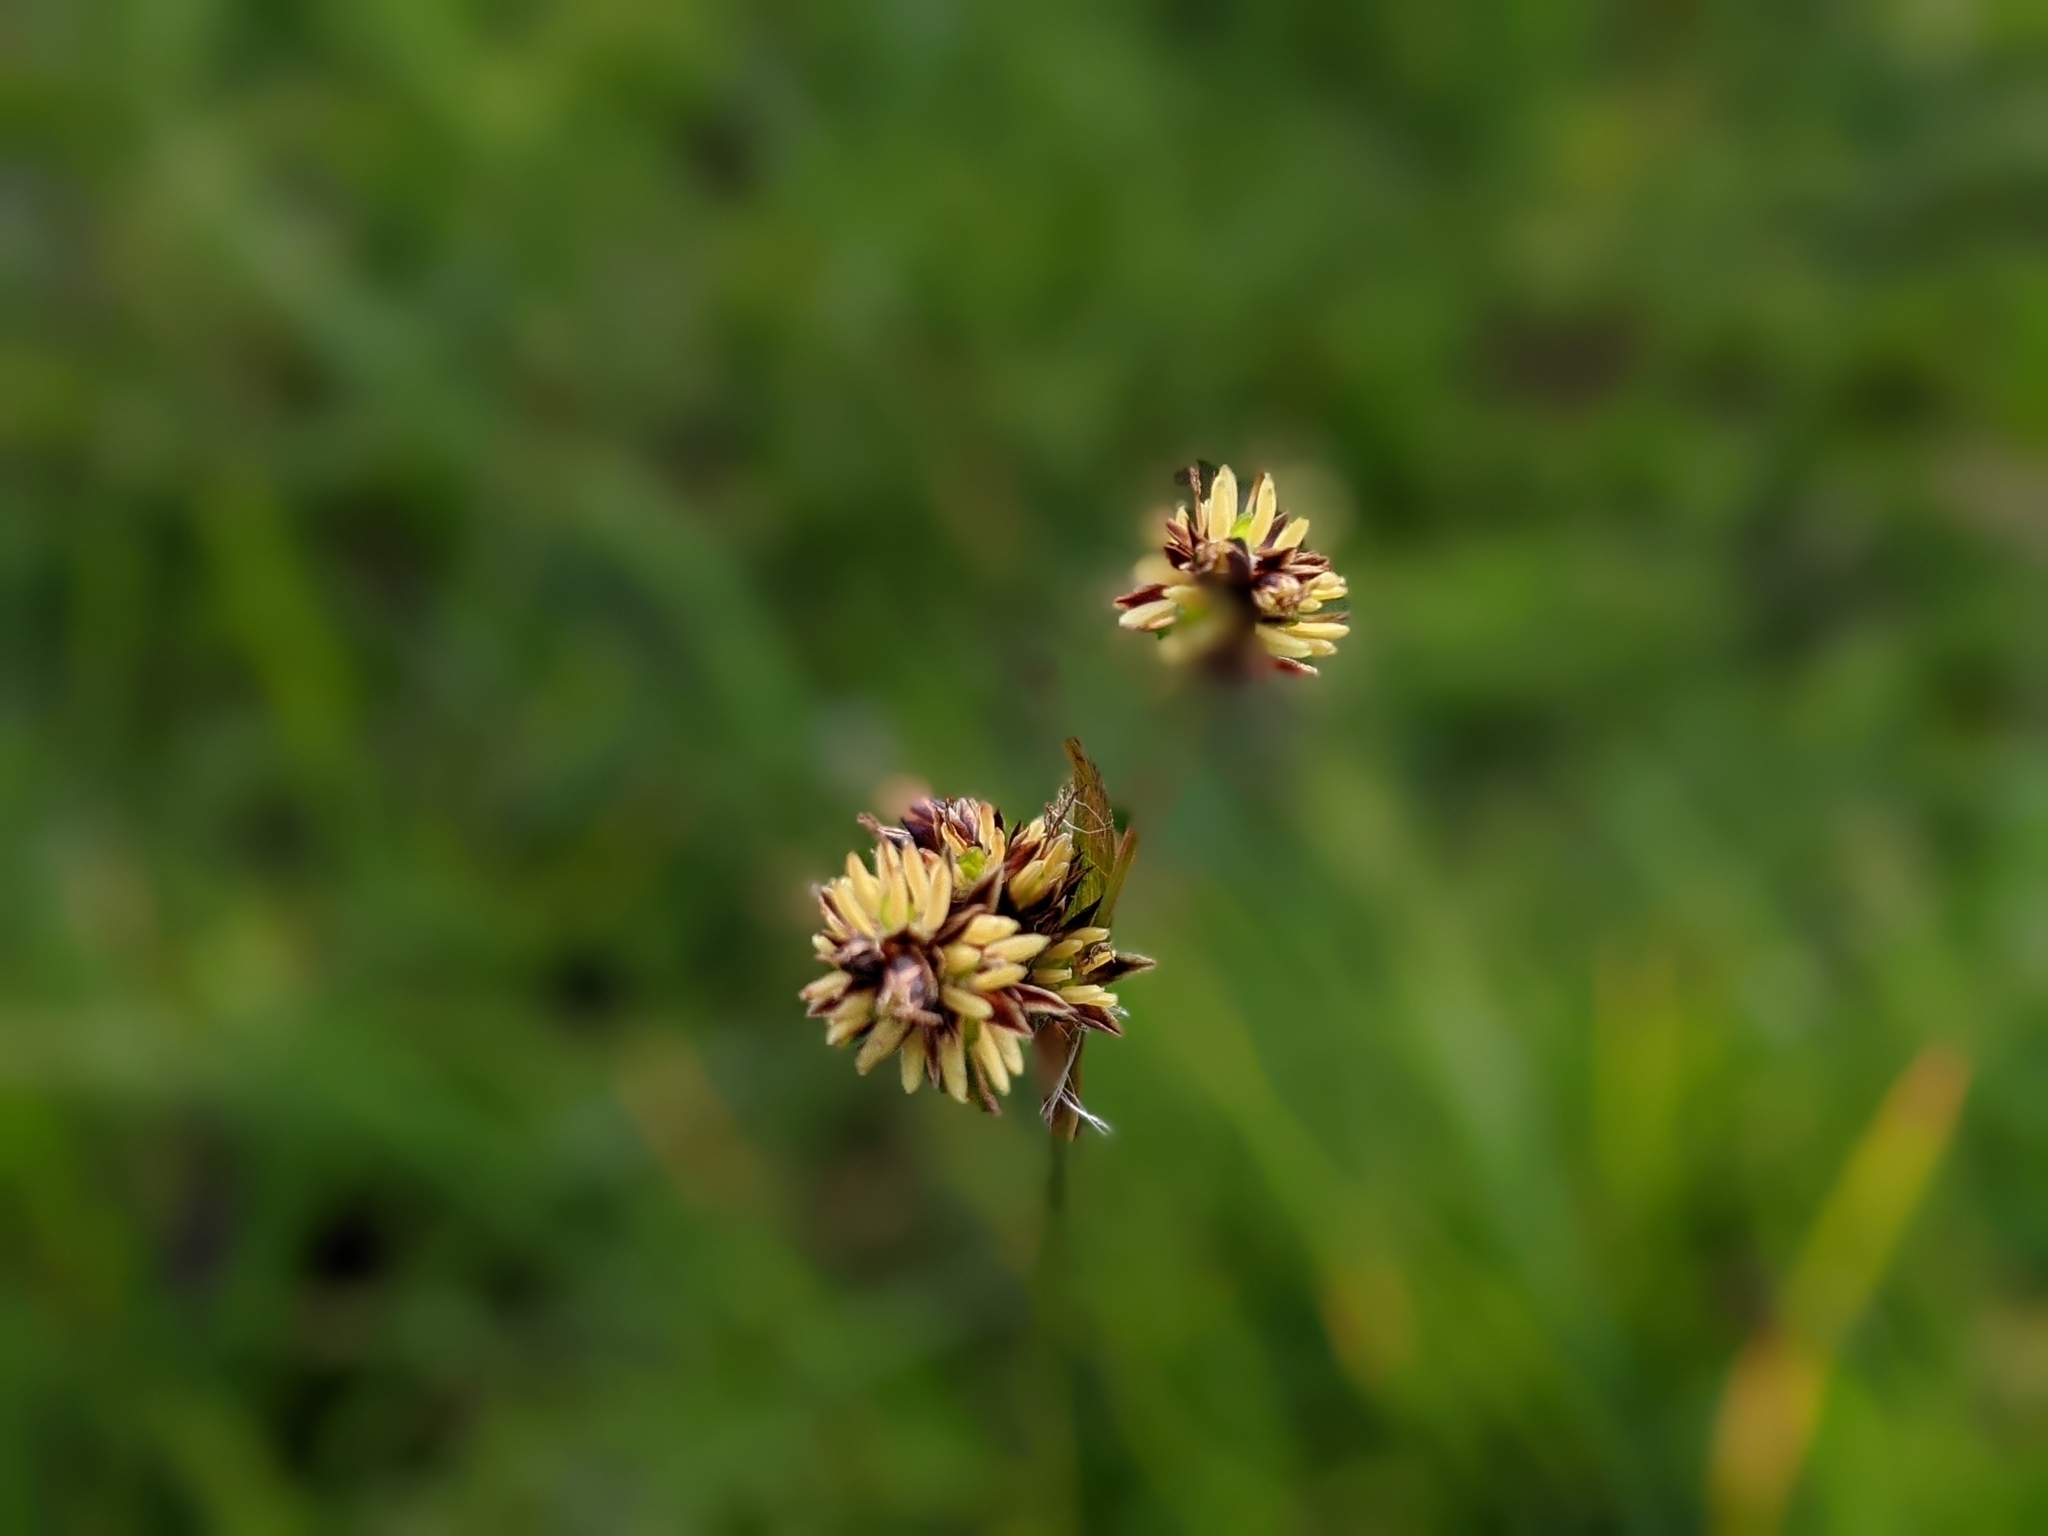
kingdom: Plantae
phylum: Tracheophyta
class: Liliopsida
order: Poales
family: Juncaceae
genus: Luzula
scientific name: Luzula campestris
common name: Field wood-rush
